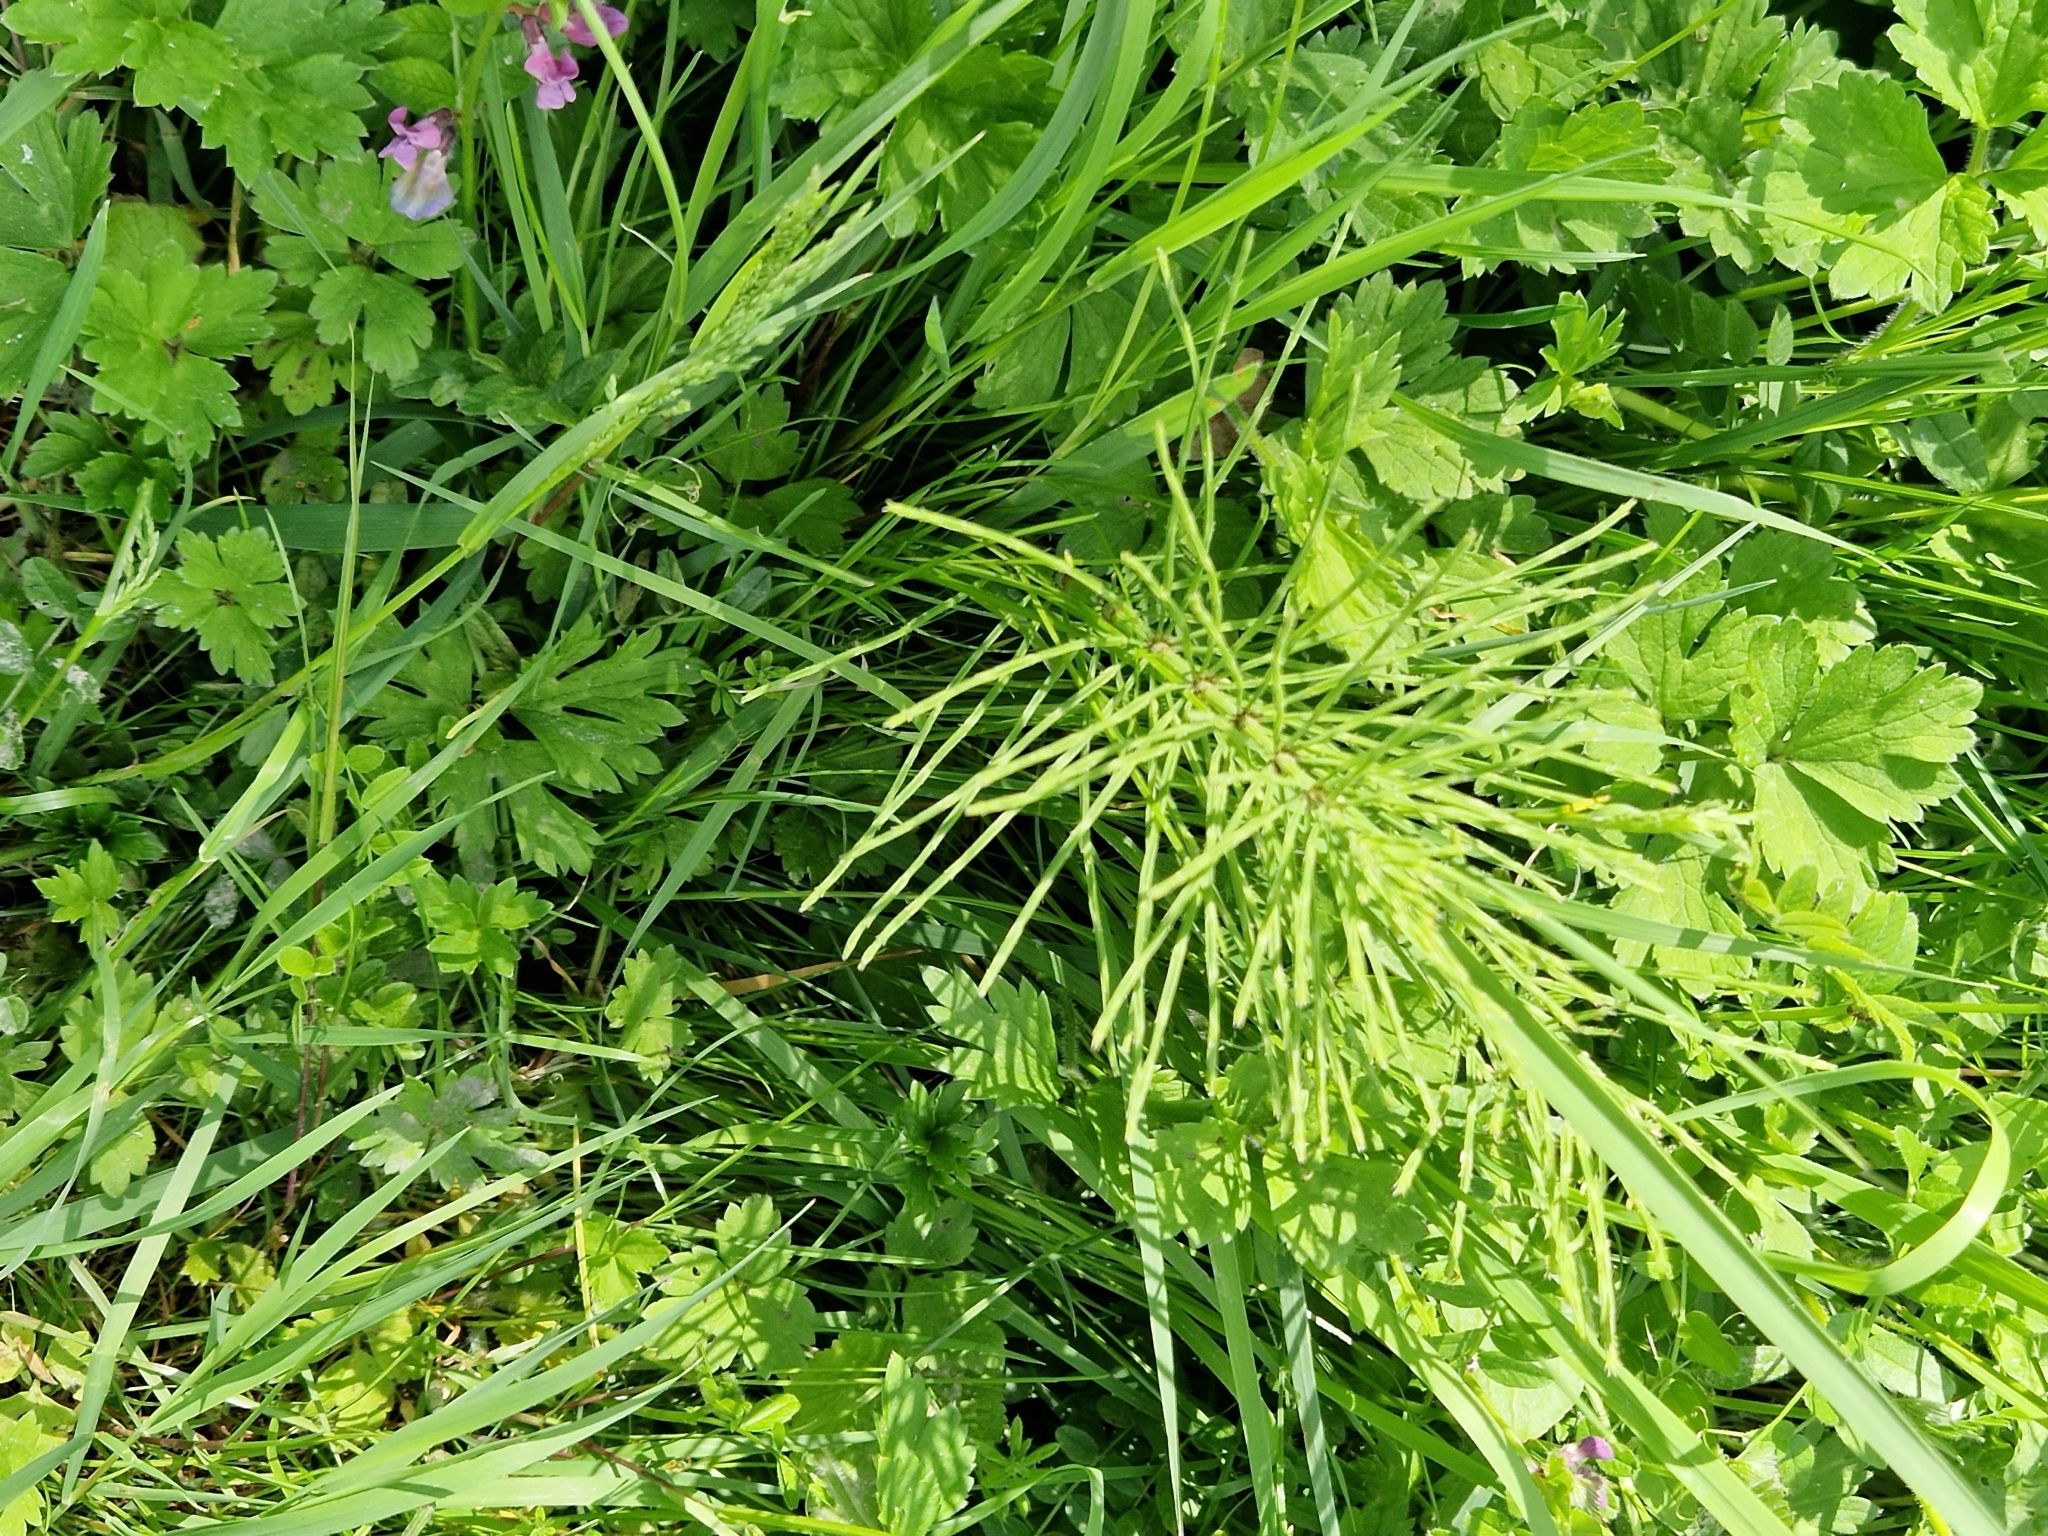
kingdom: Plantae
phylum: Tracheophyta
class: Polypodiopsida
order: Equisetales
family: Equisetaceae
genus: Equisetum
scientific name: Equisetum arvense
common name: Field horsetail
